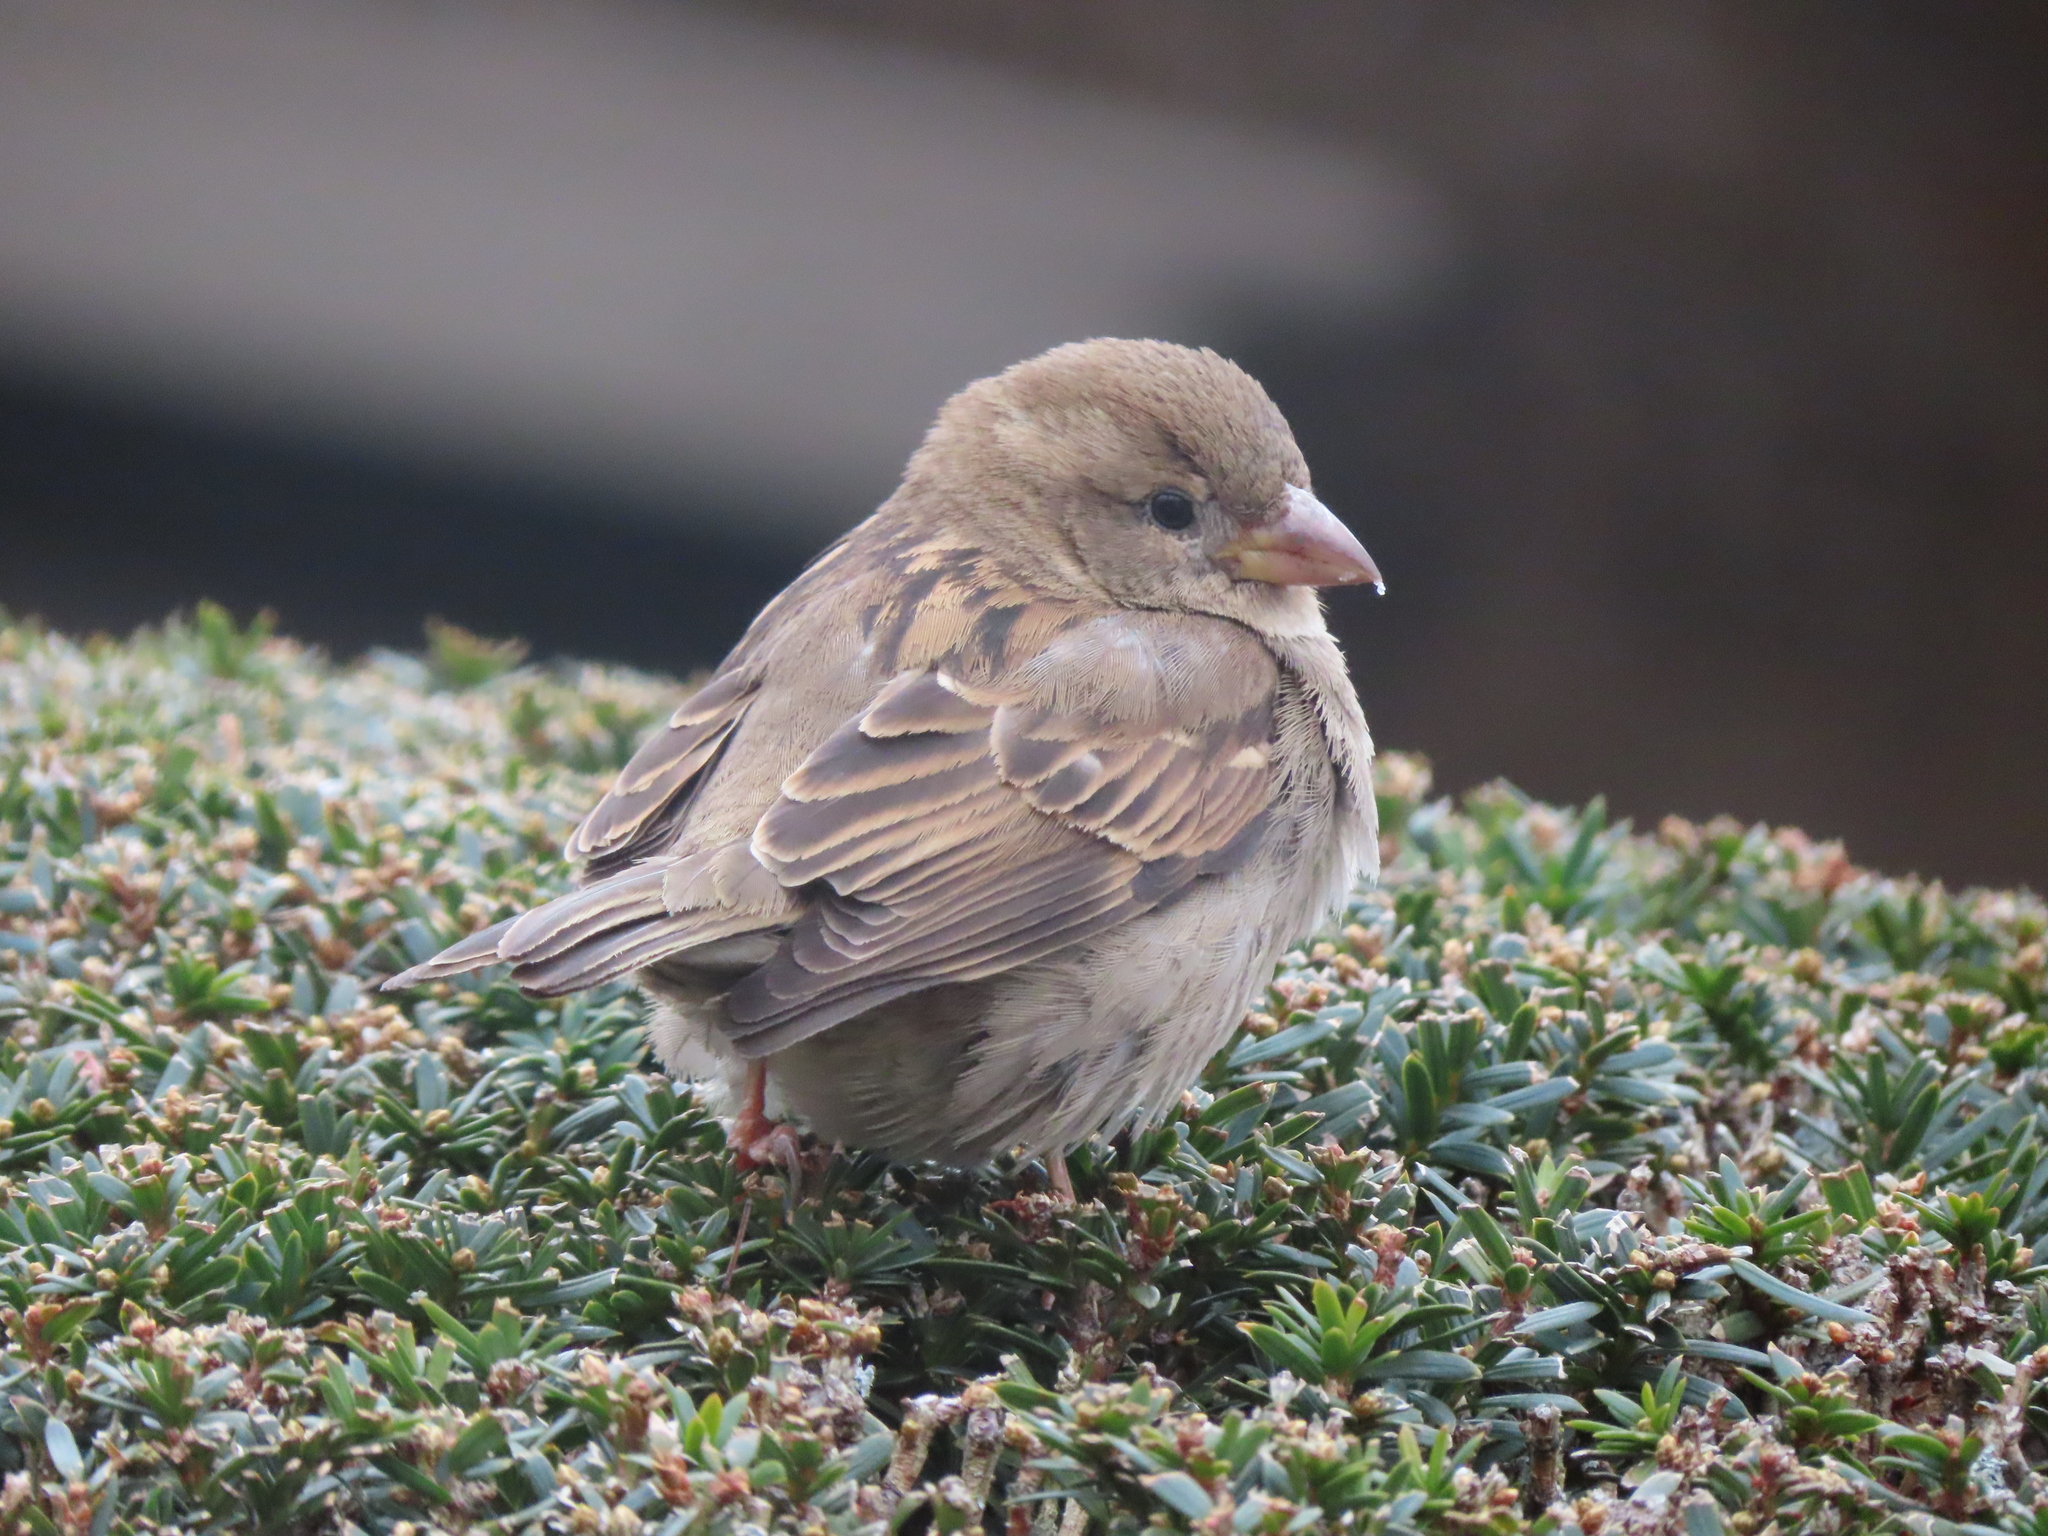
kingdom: Animalia
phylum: Chordata
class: Aves
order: Passeriformes
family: Passeridae
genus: Passer
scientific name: Passer domesticus
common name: House sparrow
